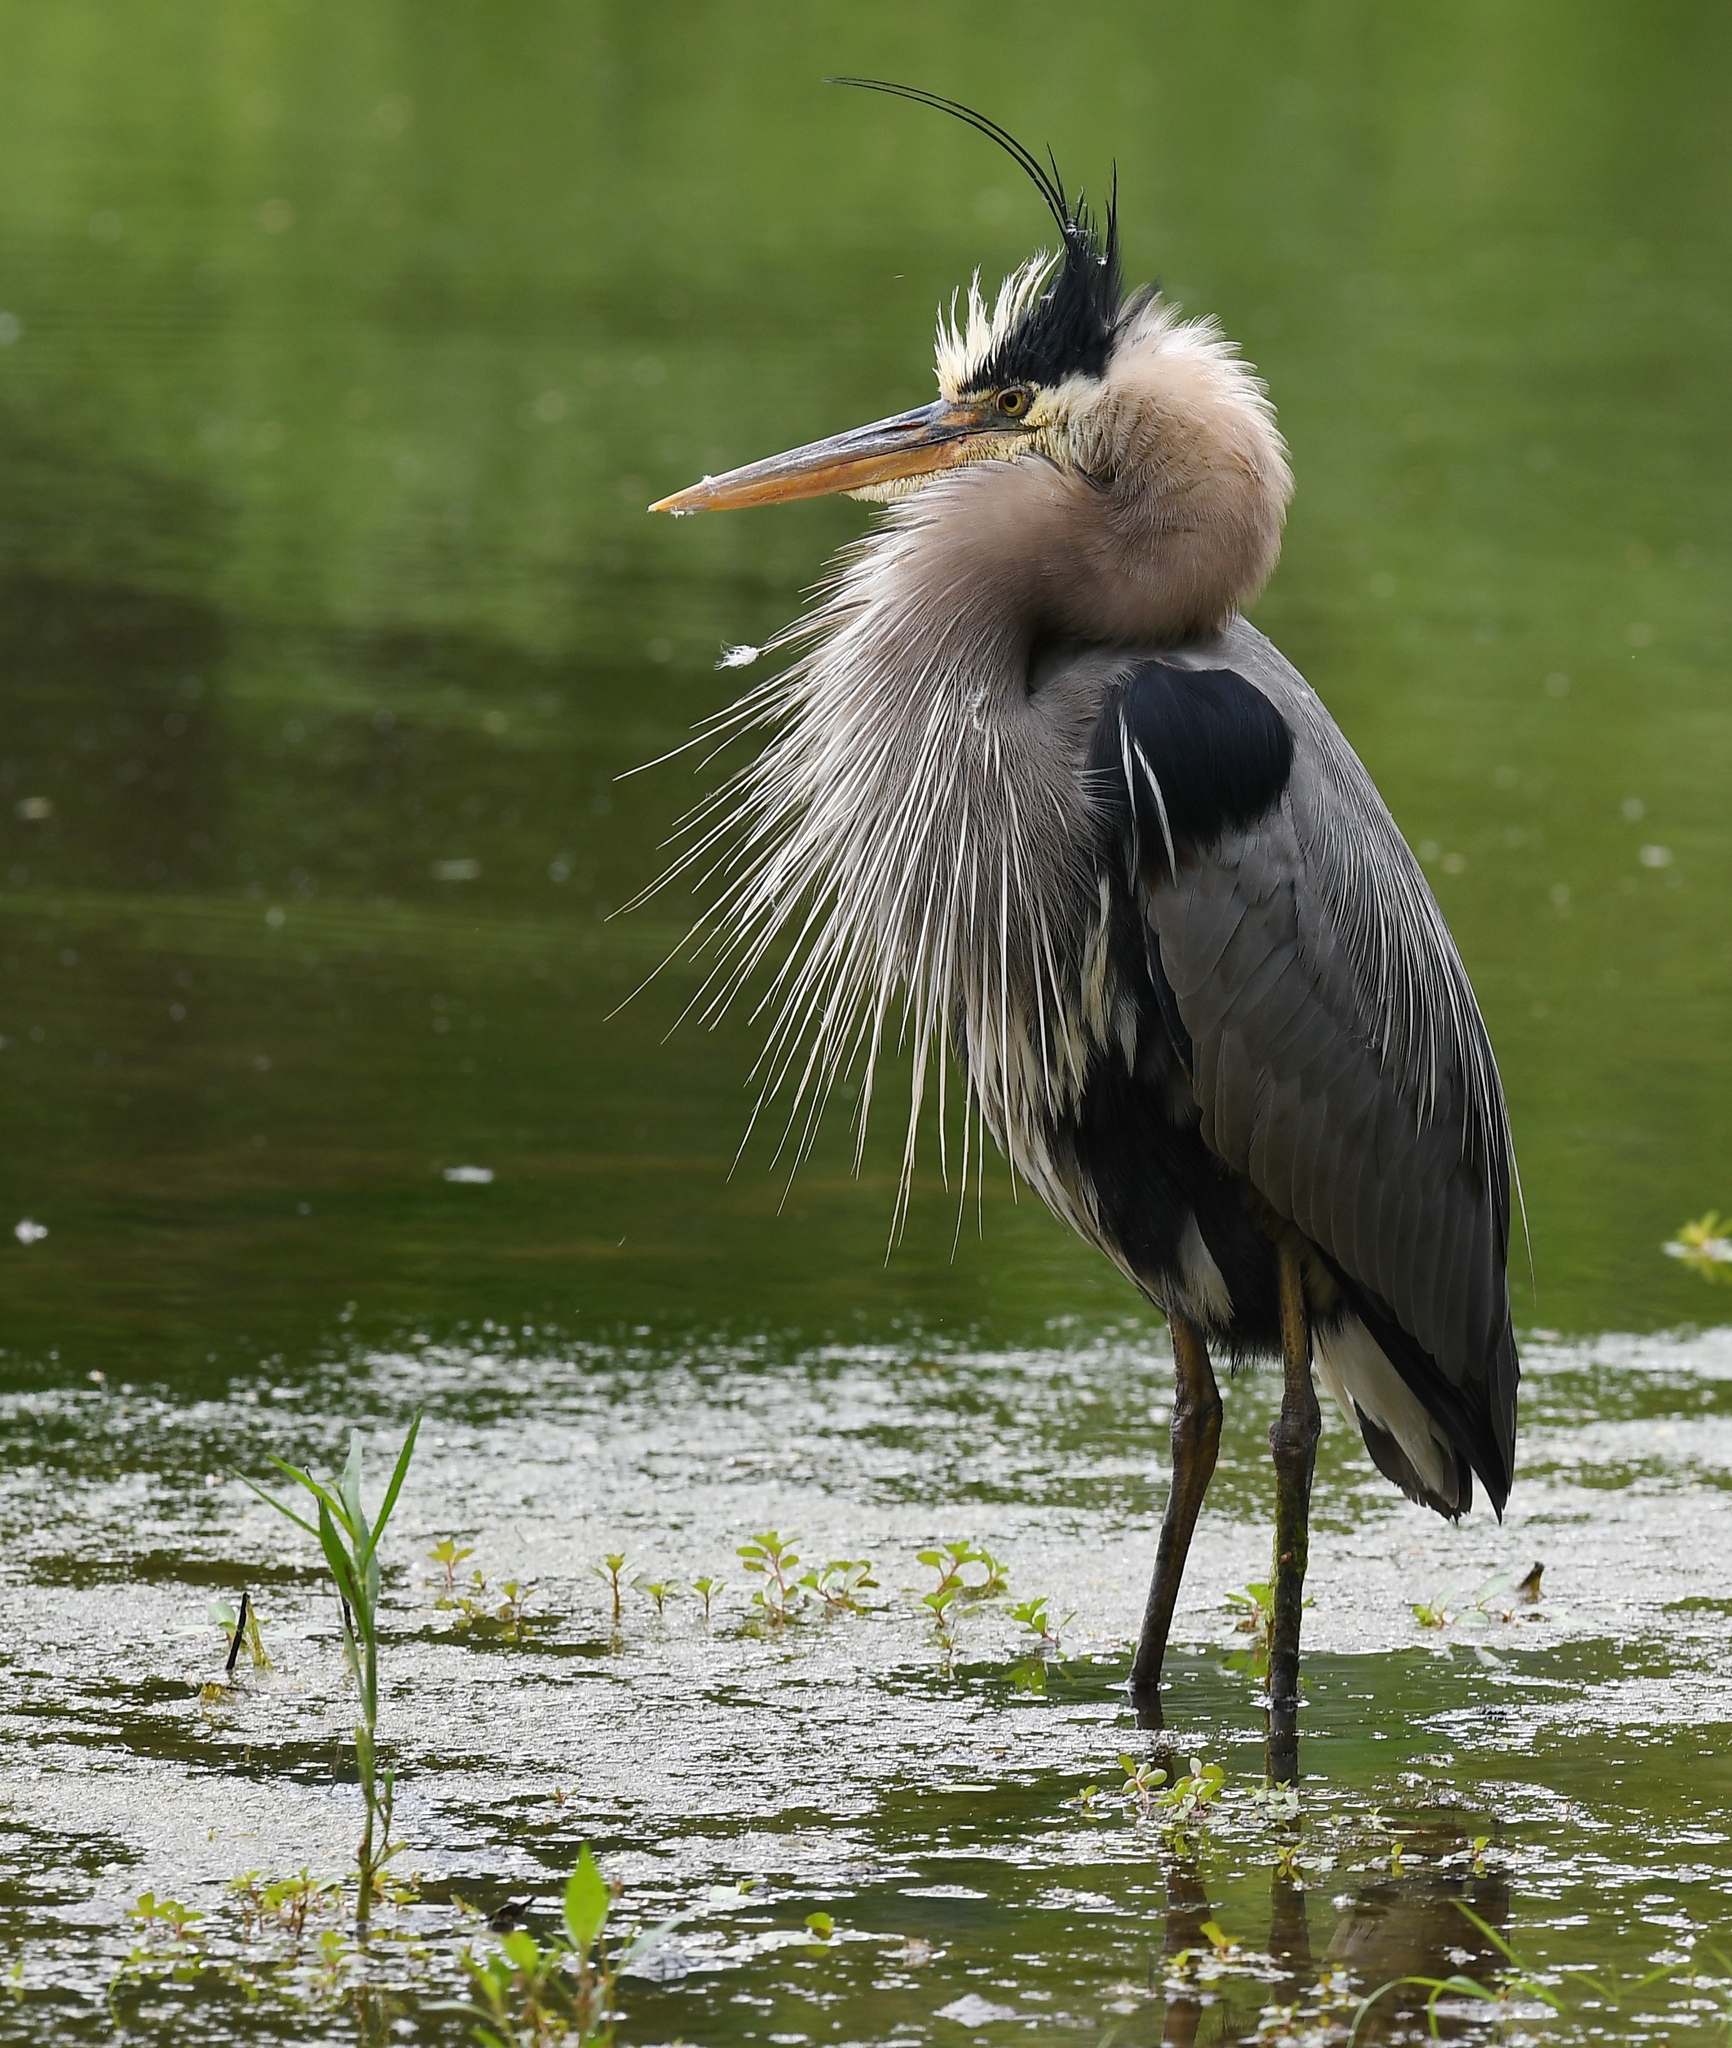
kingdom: Animalia
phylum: Chordata
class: Aves
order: Pelecaniformes
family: Ardeidae
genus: Ardea
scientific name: Ardea herodias
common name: Great blue heron
